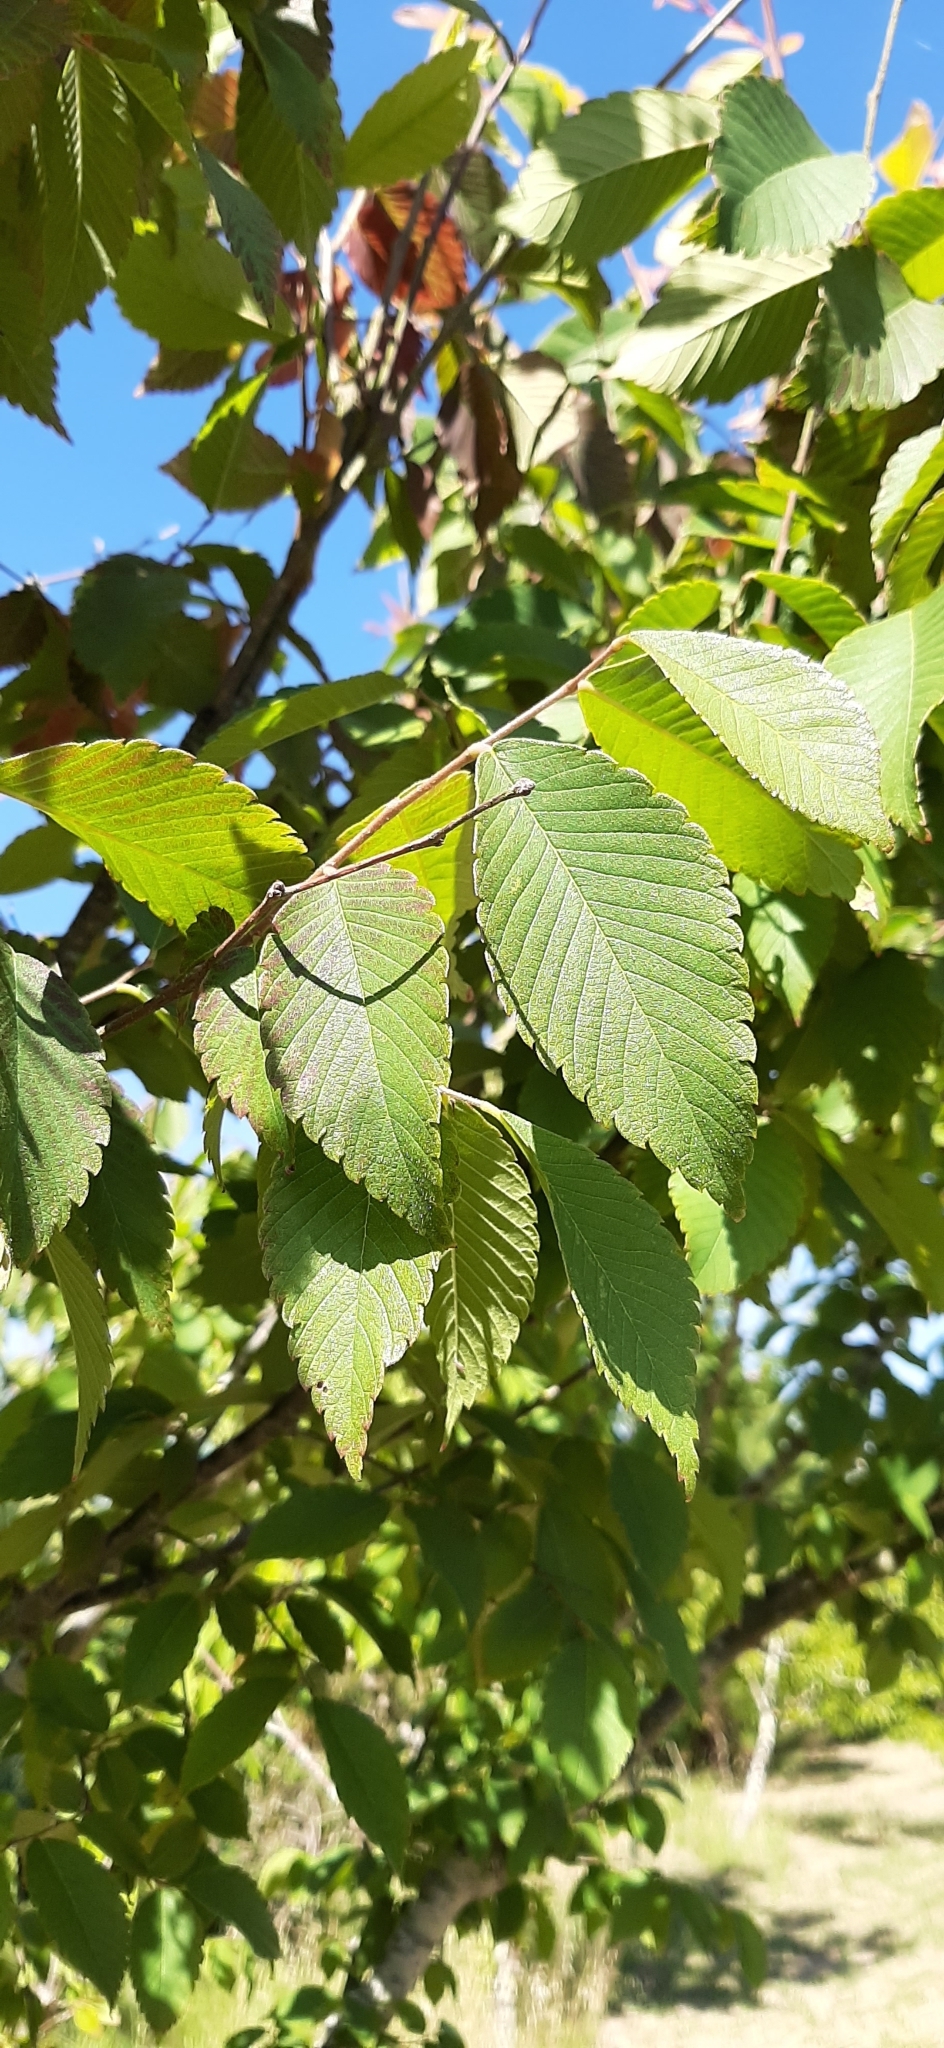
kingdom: Plantae
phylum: Tracheophyta
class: Magnoliopsida
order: Rosales
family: Ulmaceae
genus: Ulmus
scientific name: Ulmus glabra
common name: Wych elm
